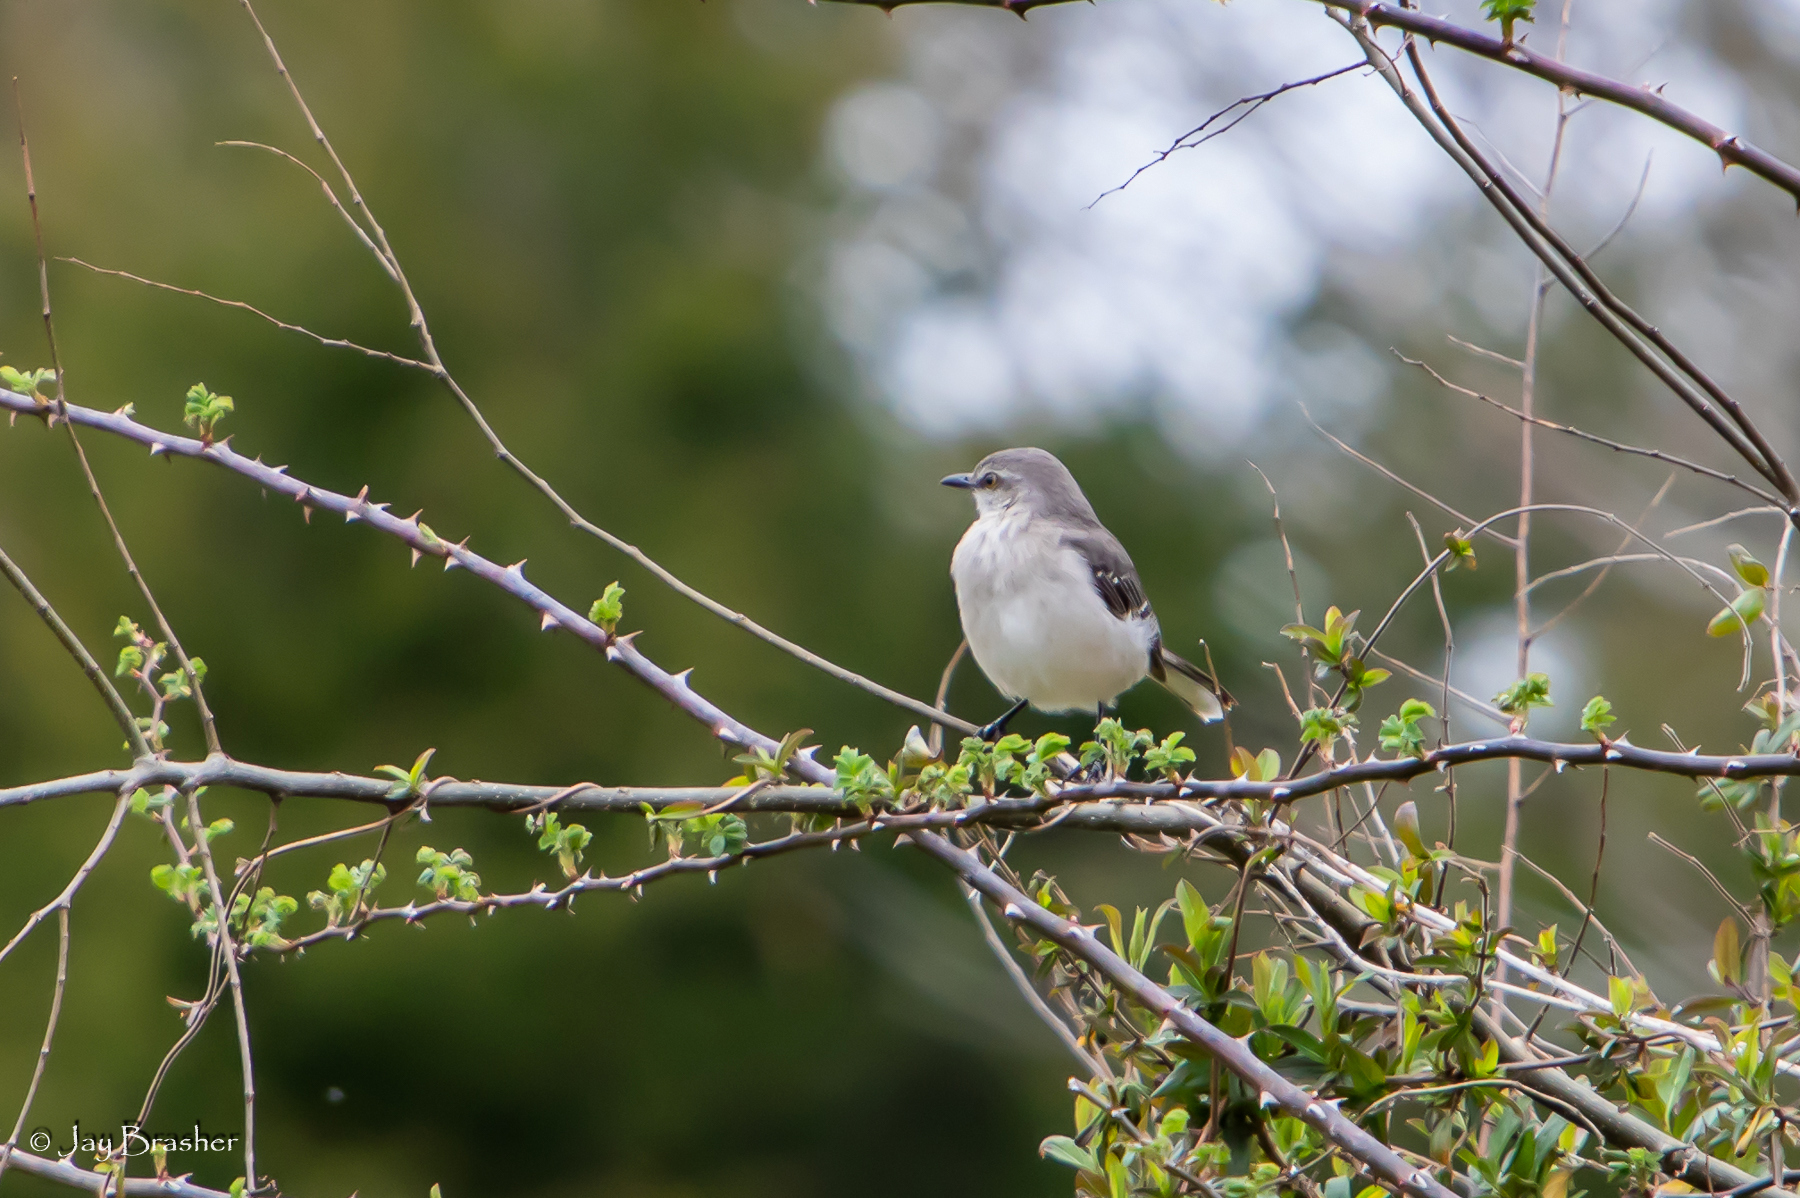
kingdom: Animalia
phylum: Chordata
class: Aves
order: Passeriformes
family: Mimidae
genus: Mimus
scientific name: Mimus polyglottos
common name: Northern mockingbird
